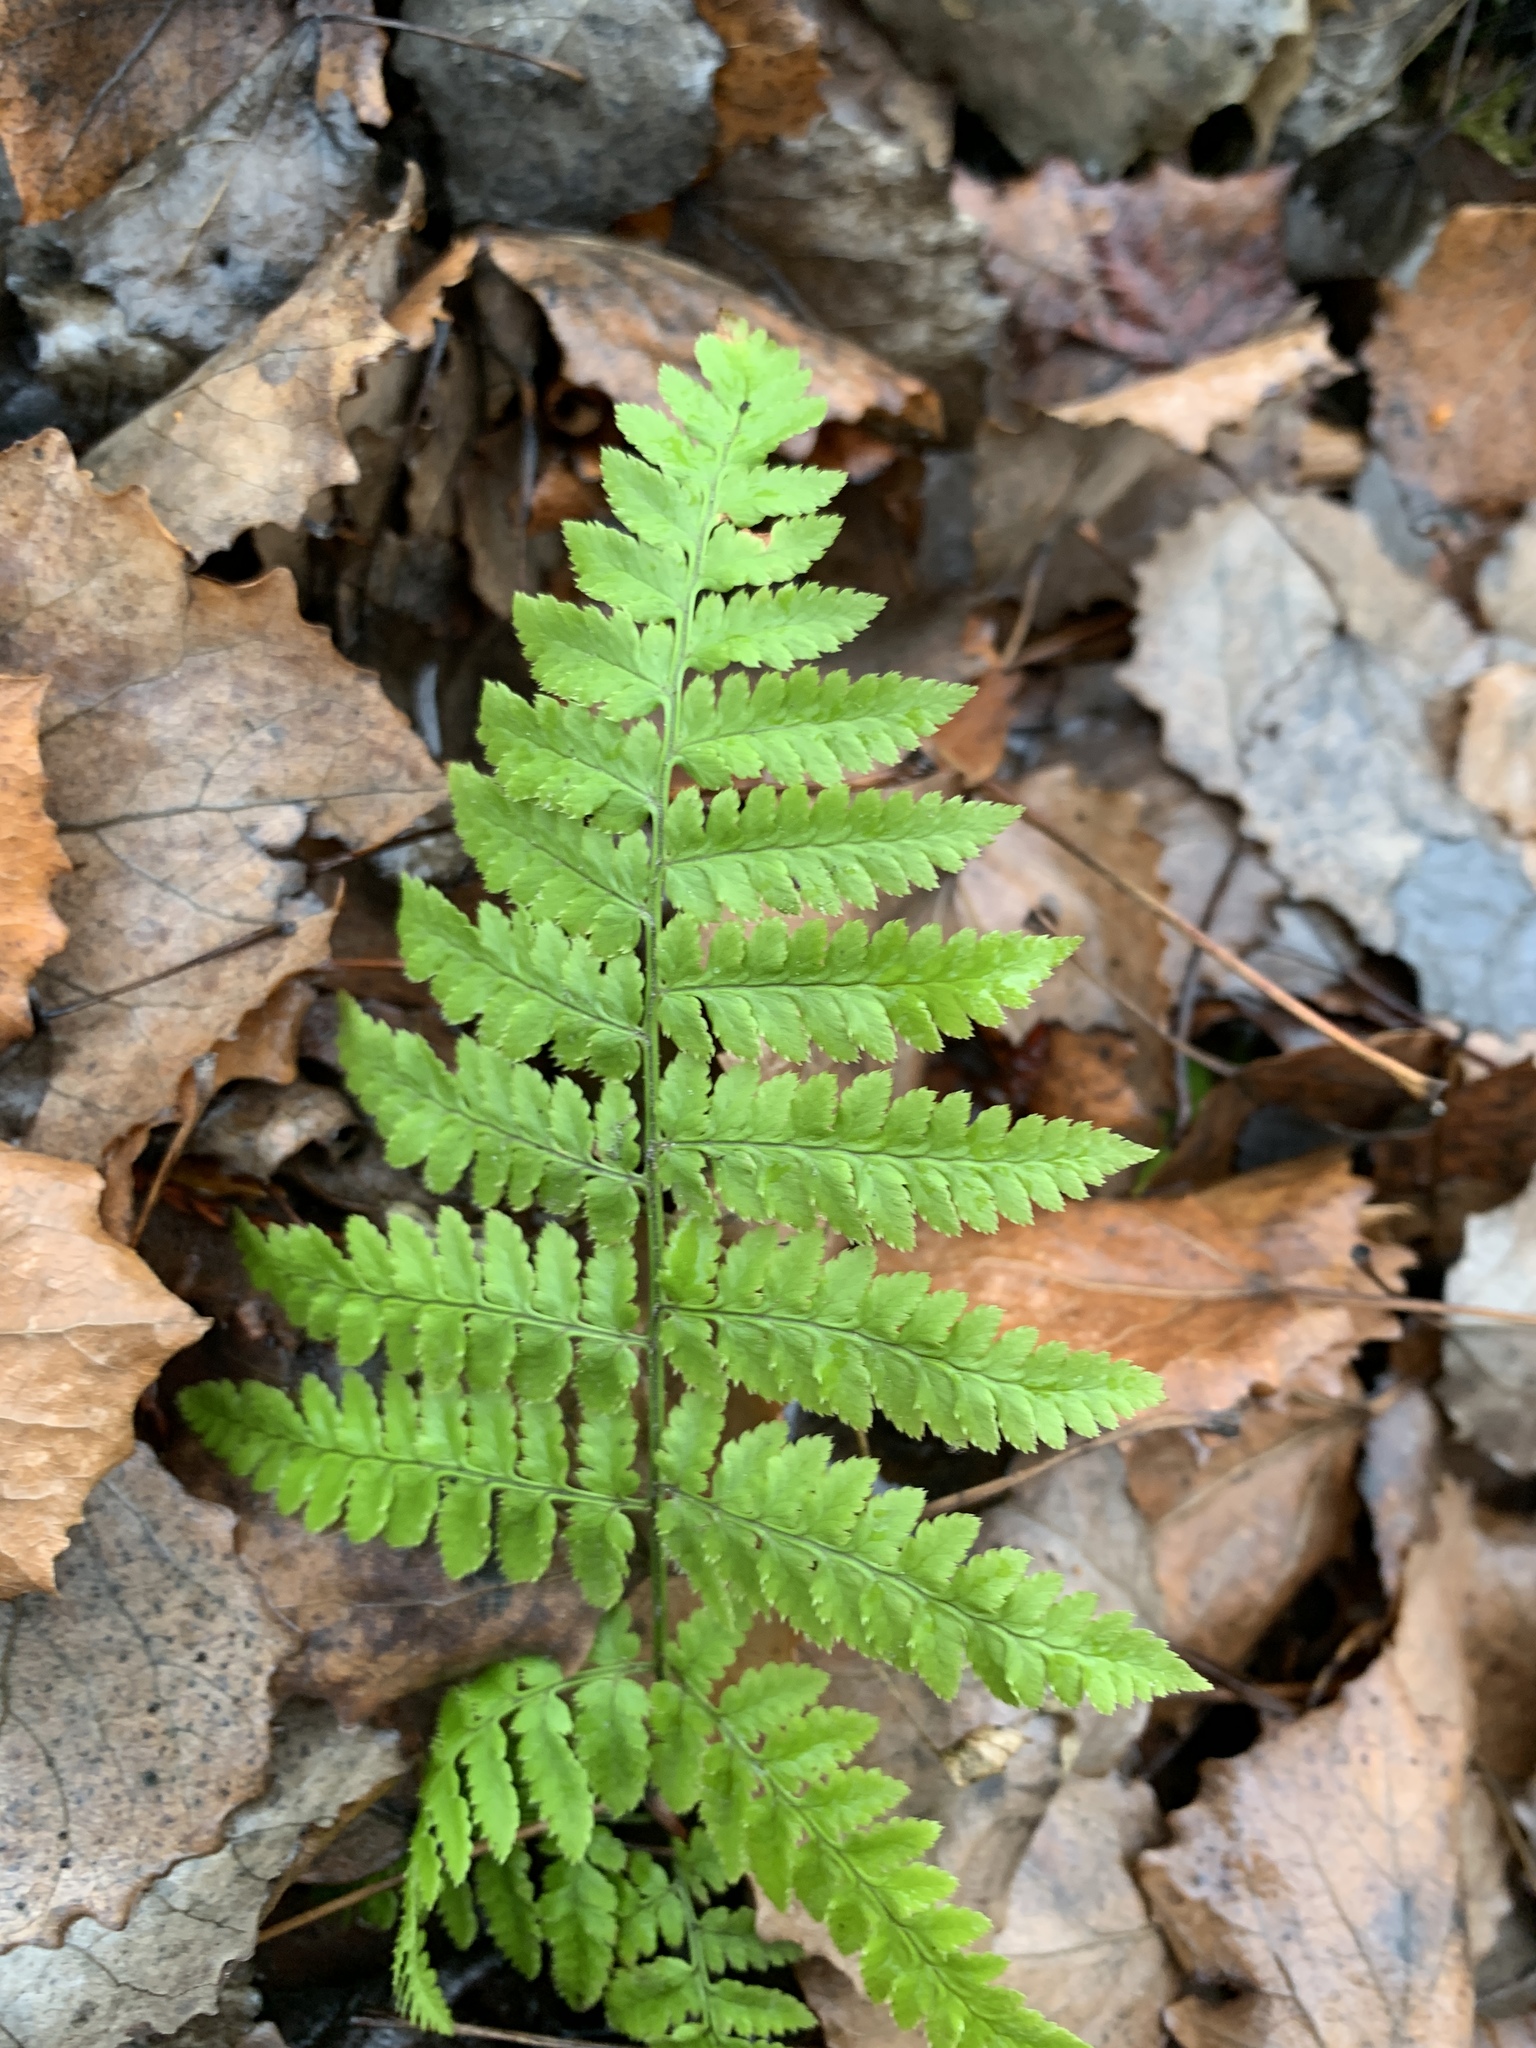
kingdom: Plantae
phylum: Tracheophyta
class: Polypodiopsida
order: Polypodiales
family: Dryopteridaceae
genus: Dryopteris
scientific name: Dryopteris carthusiana
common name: Narrow buckler-fern
